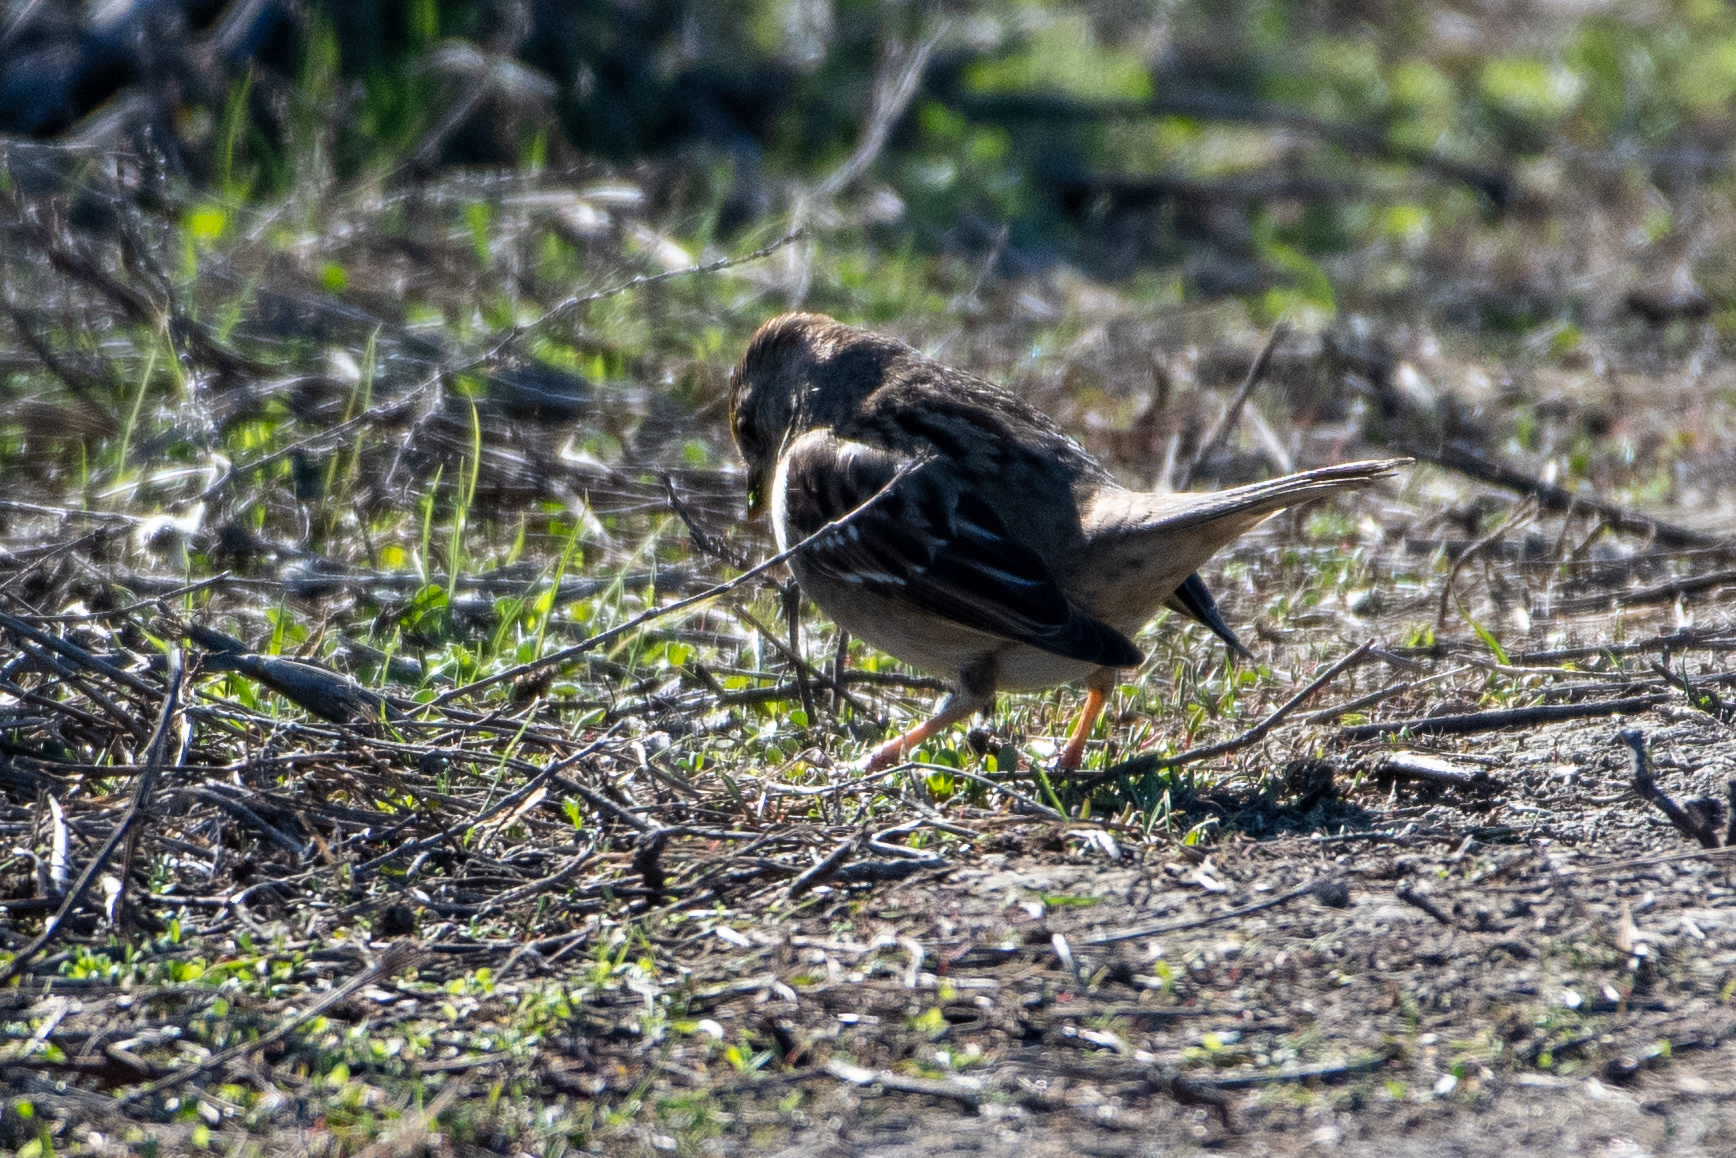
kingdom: Animalia
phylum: Chordata
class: Aves
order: Passeriformes
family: Passerellidae
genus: Zonotrichia
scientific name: Zonotrichia atricapilla
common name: Golden-crowned sparrow
